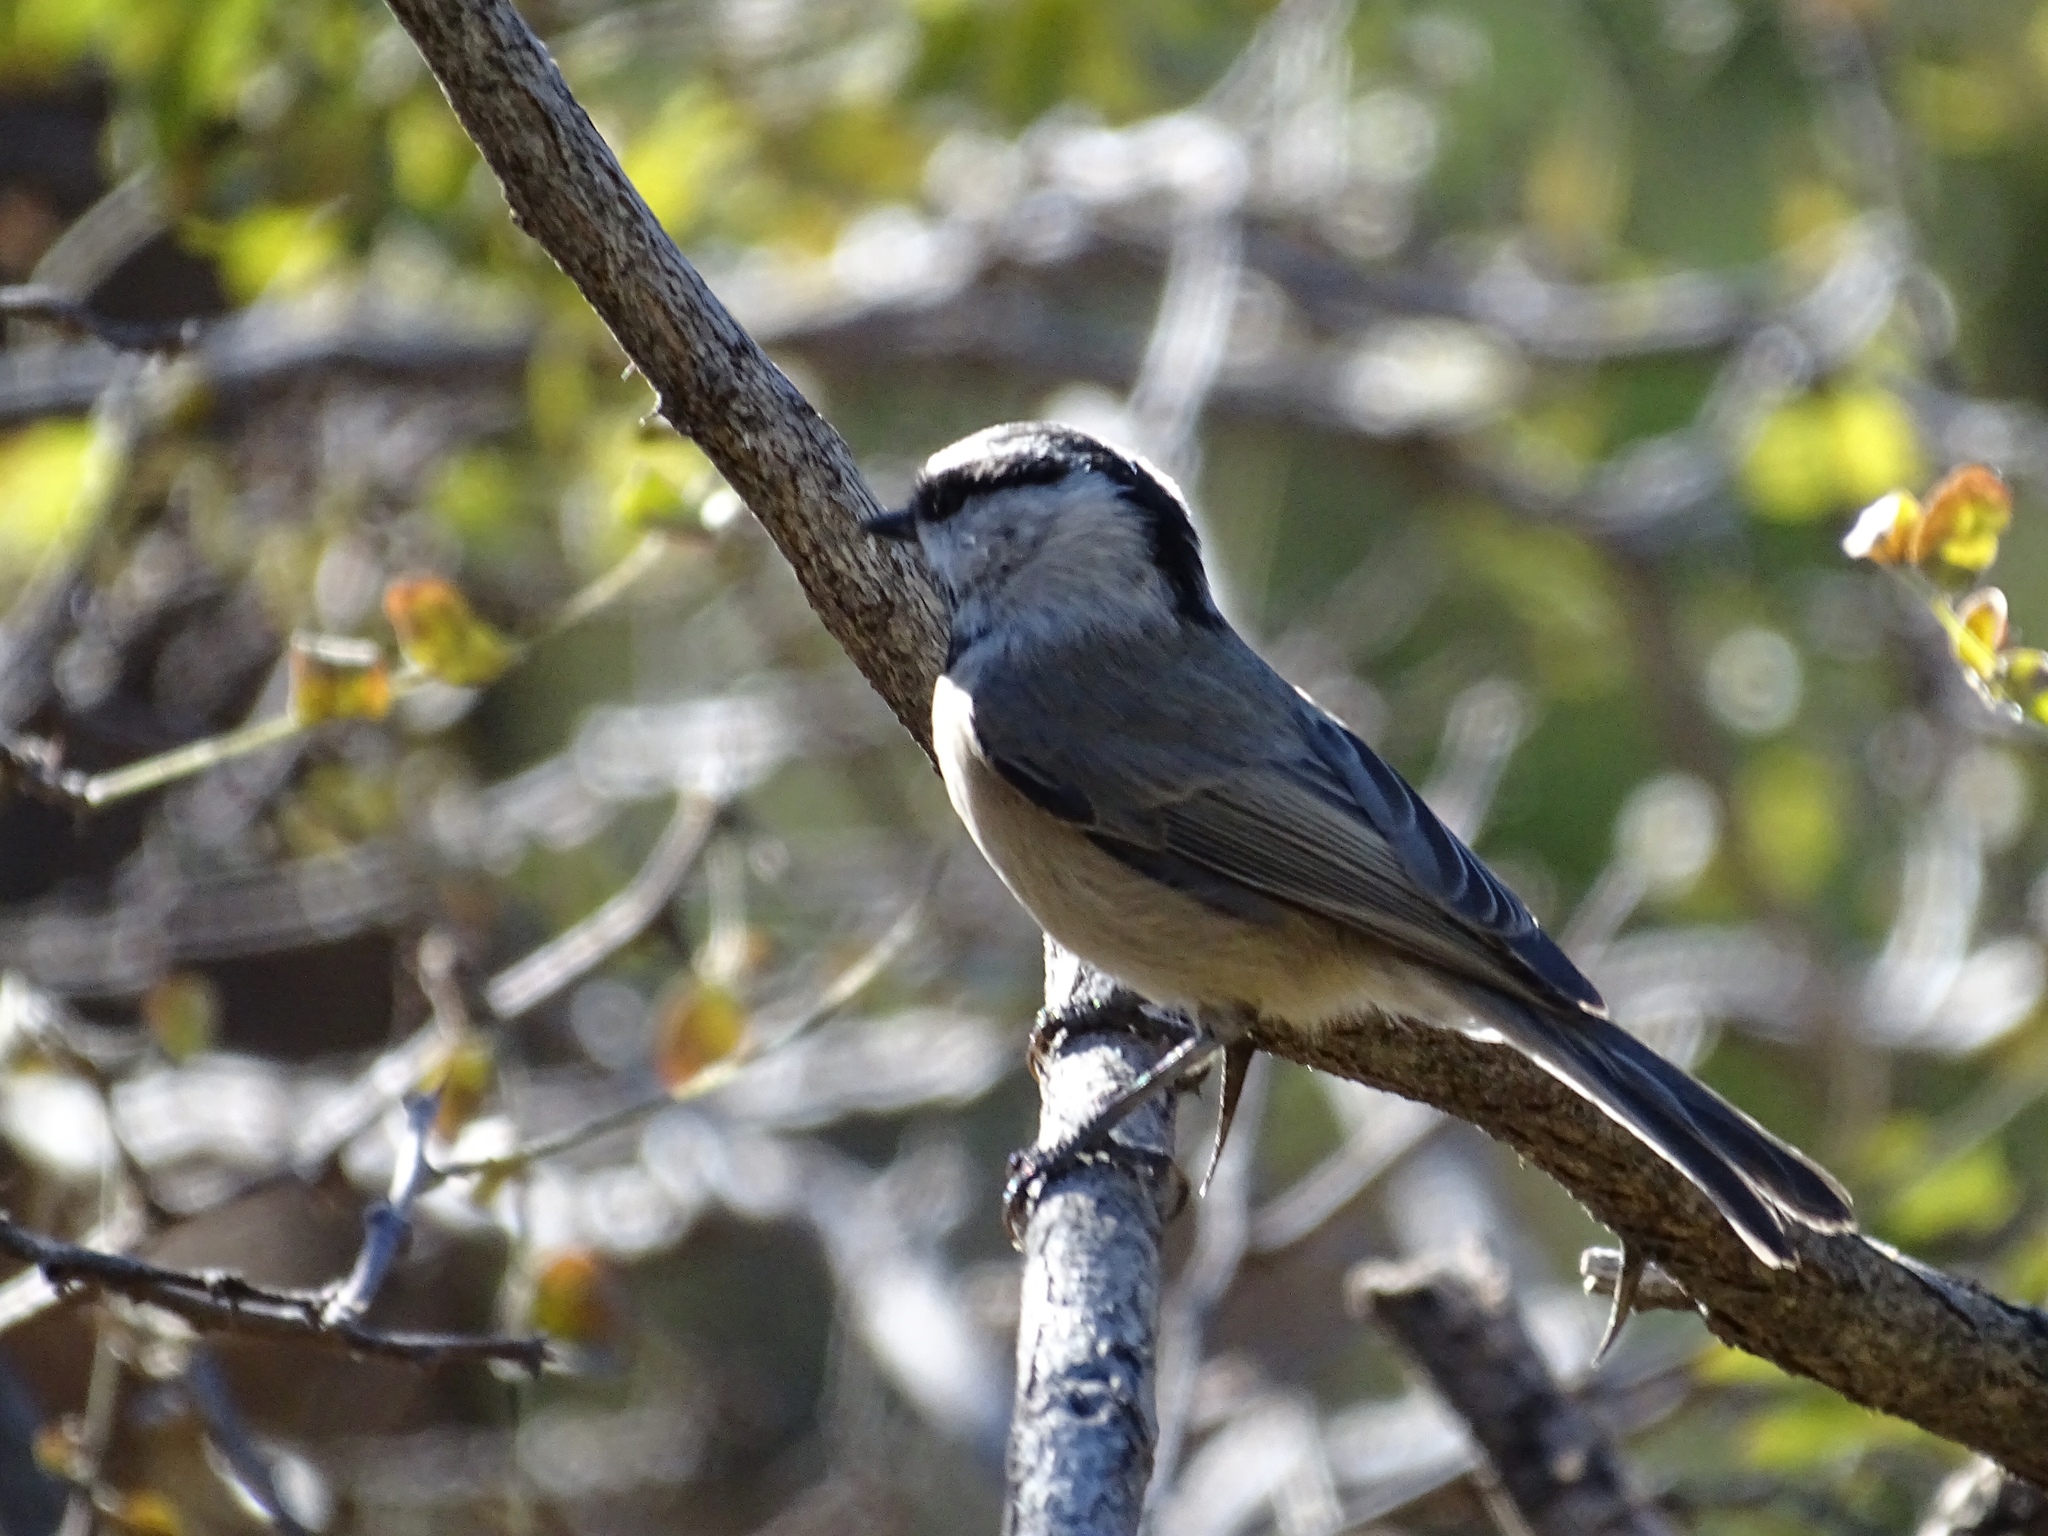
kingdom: Animalia
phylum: Chordata
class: Aves
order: Passeriformes
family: Paridae
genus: Poecile
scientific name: Poecile gambeli
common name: Mountain chickadee
